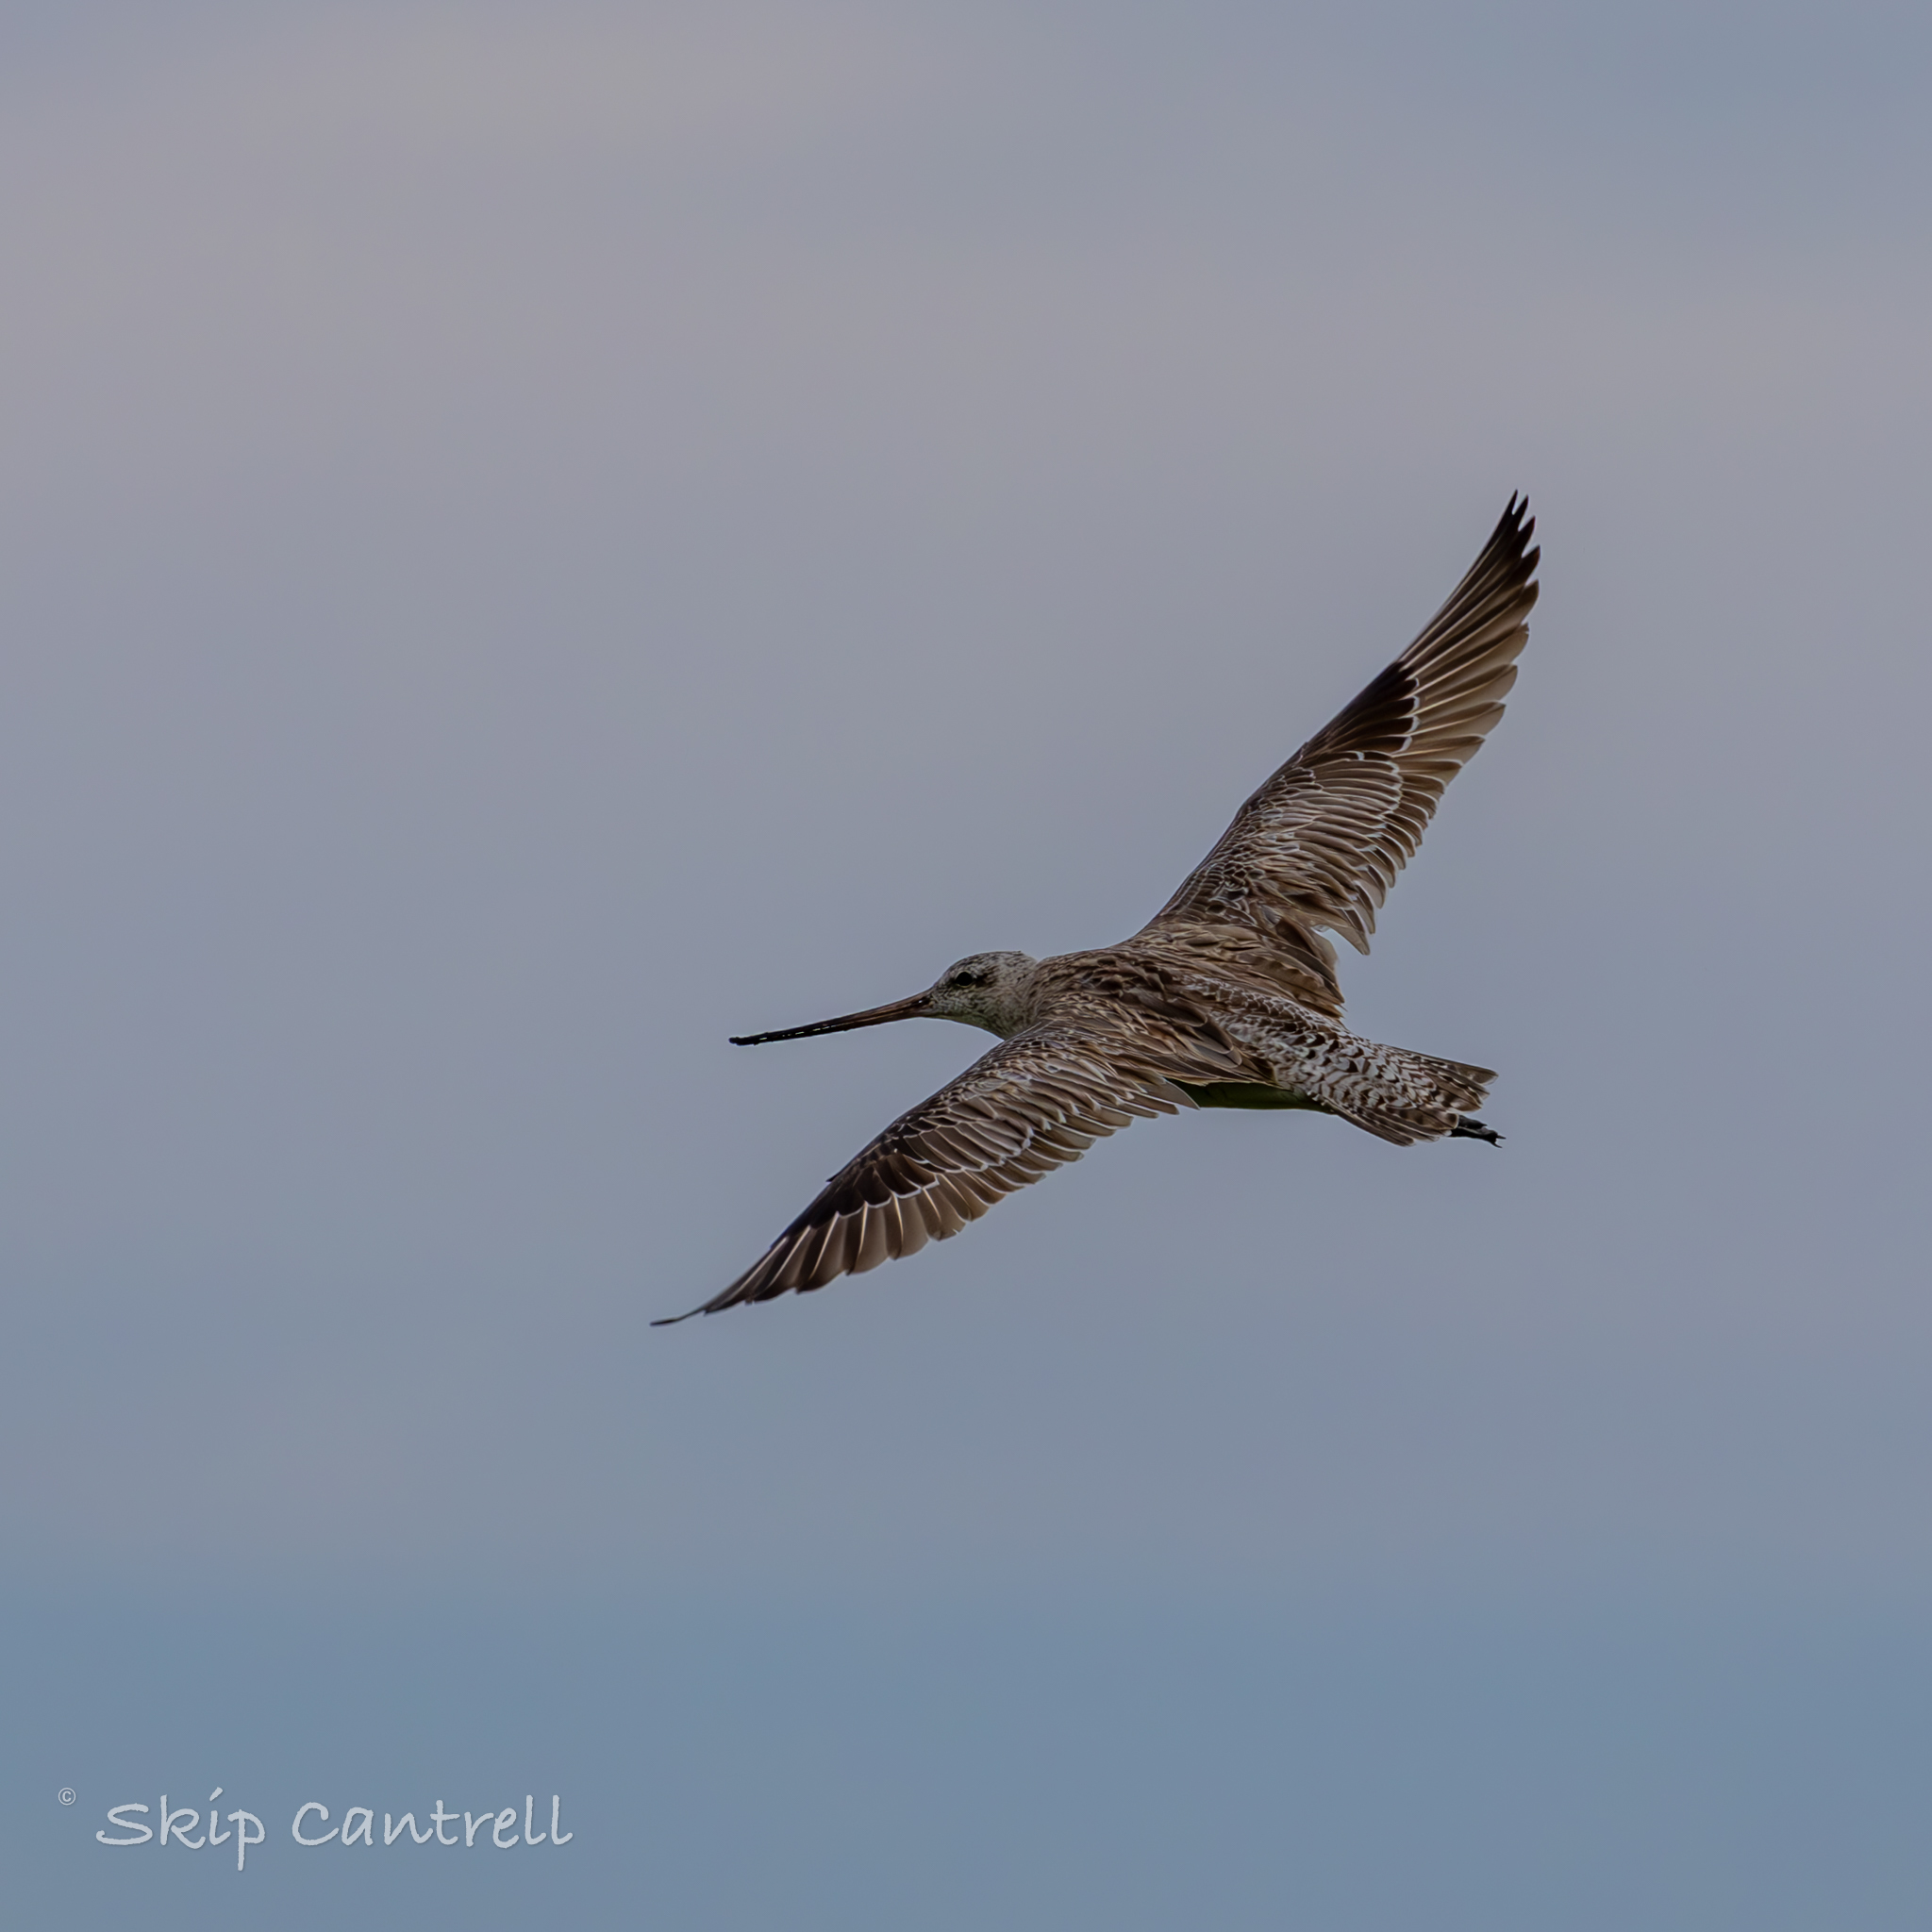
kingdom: Animalia
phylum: Chordata
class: Aves
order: Charadriiformes
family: Scolopacidae
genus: Limosa
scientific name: Limosa lapponica
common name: Bar-tailed godwit
